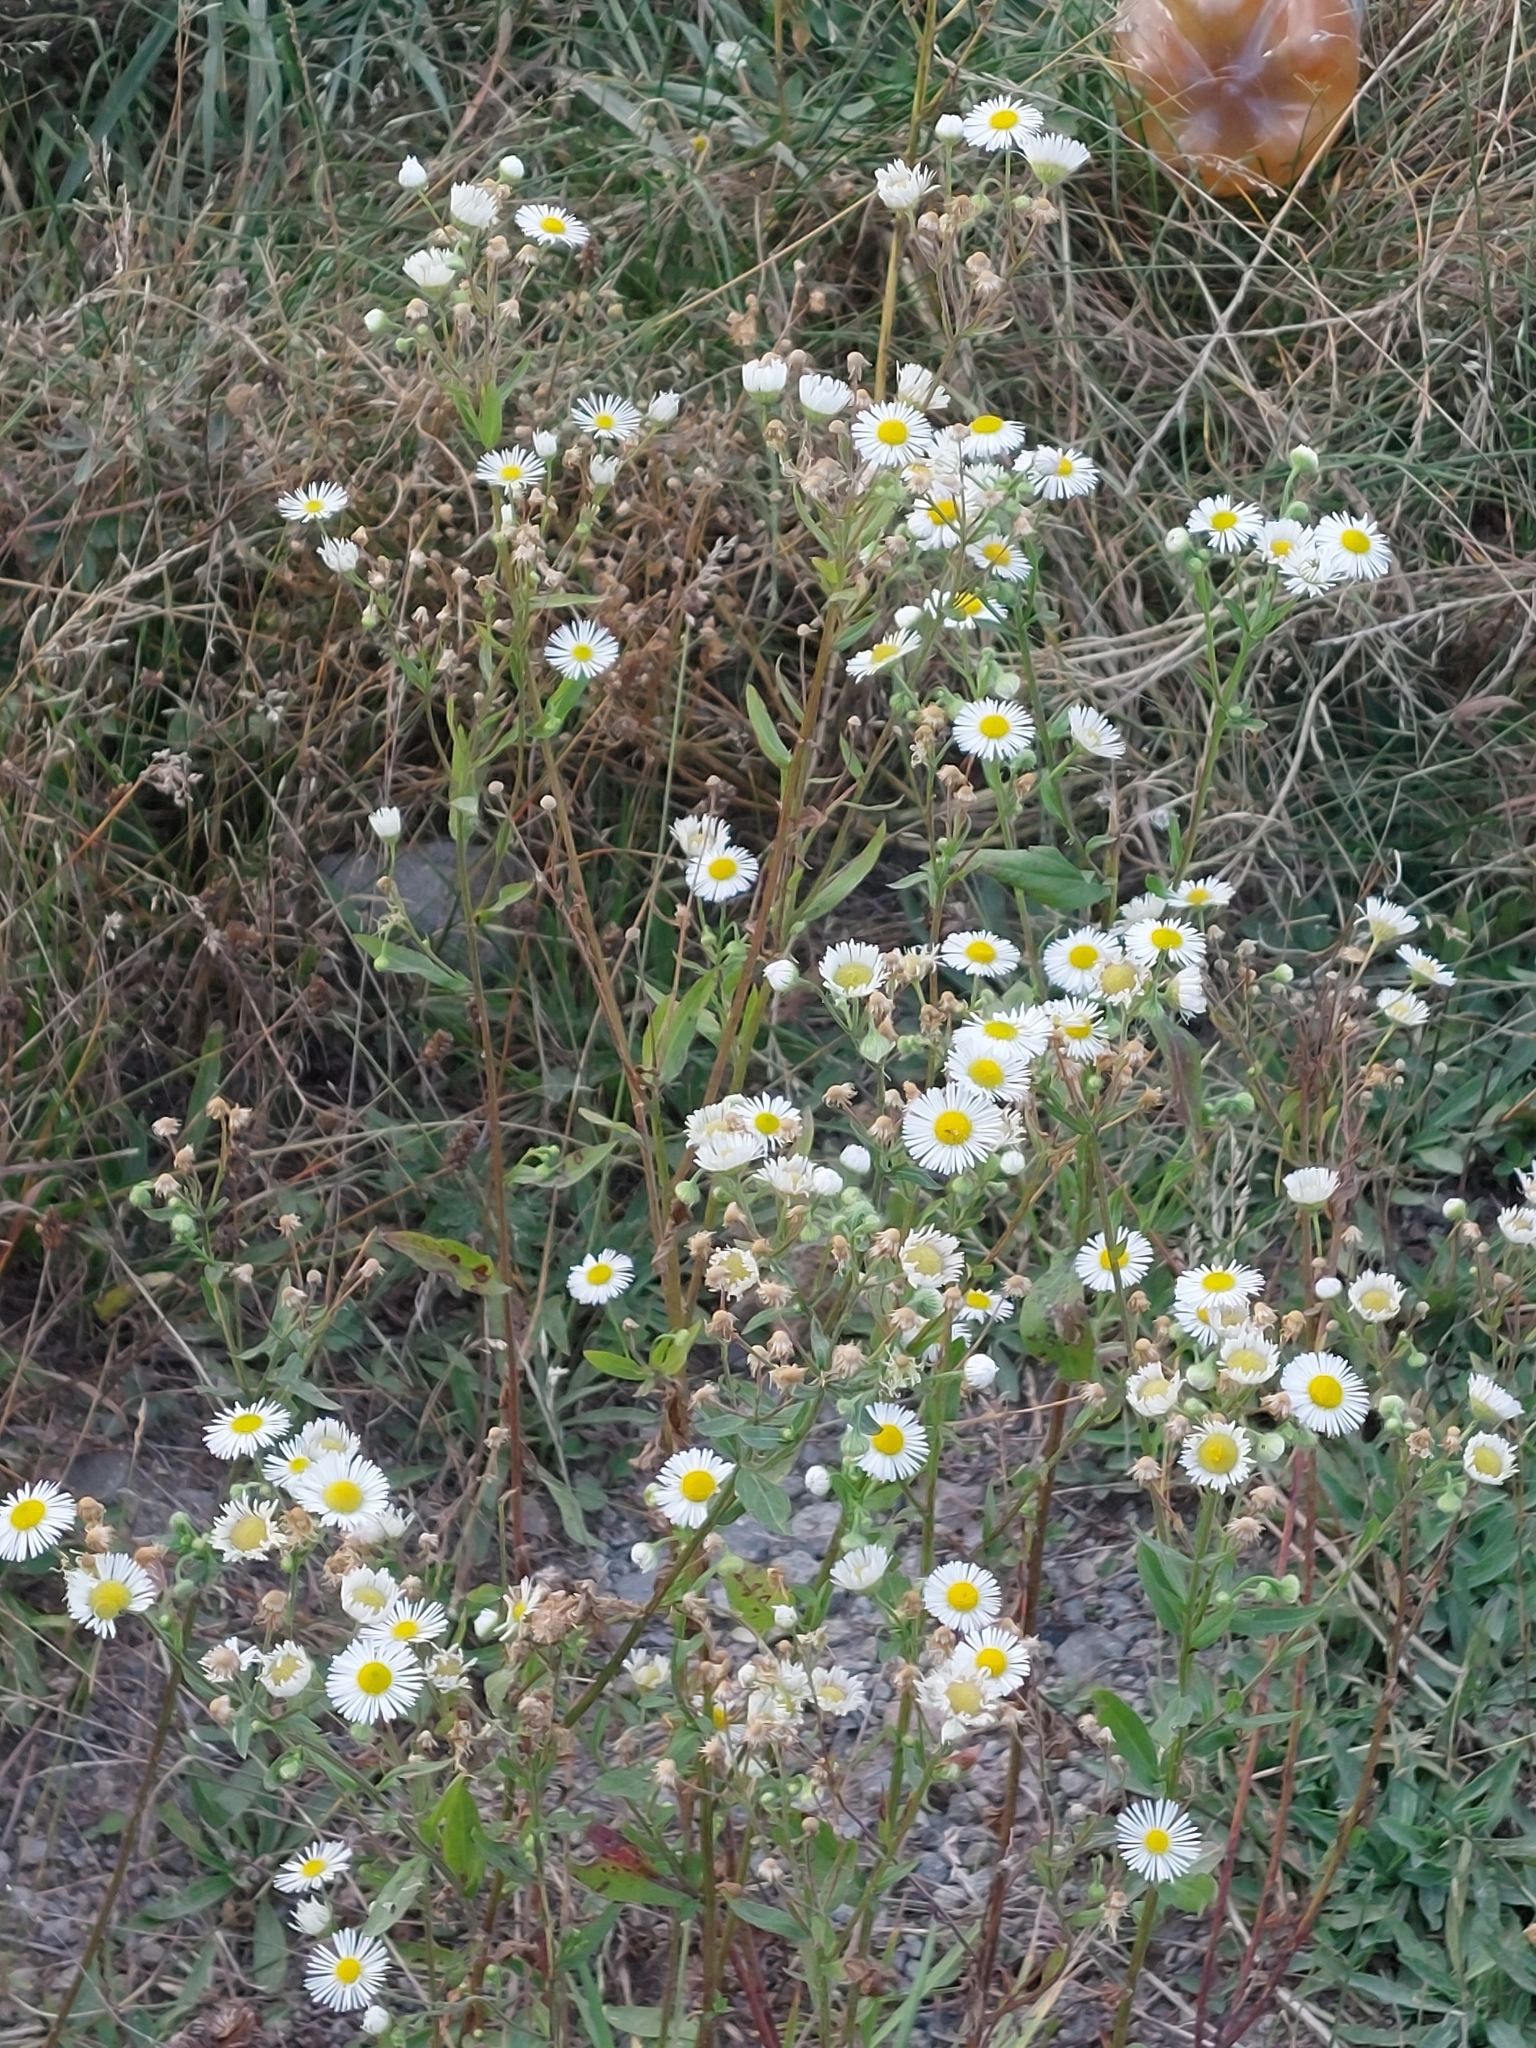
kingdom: Plantae
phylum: Tracheophyta
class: Magnoliopsida
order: Asterales
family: Asteraceae
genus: Erigeron
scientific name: Erigeron annuus
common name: Tall fleabane
